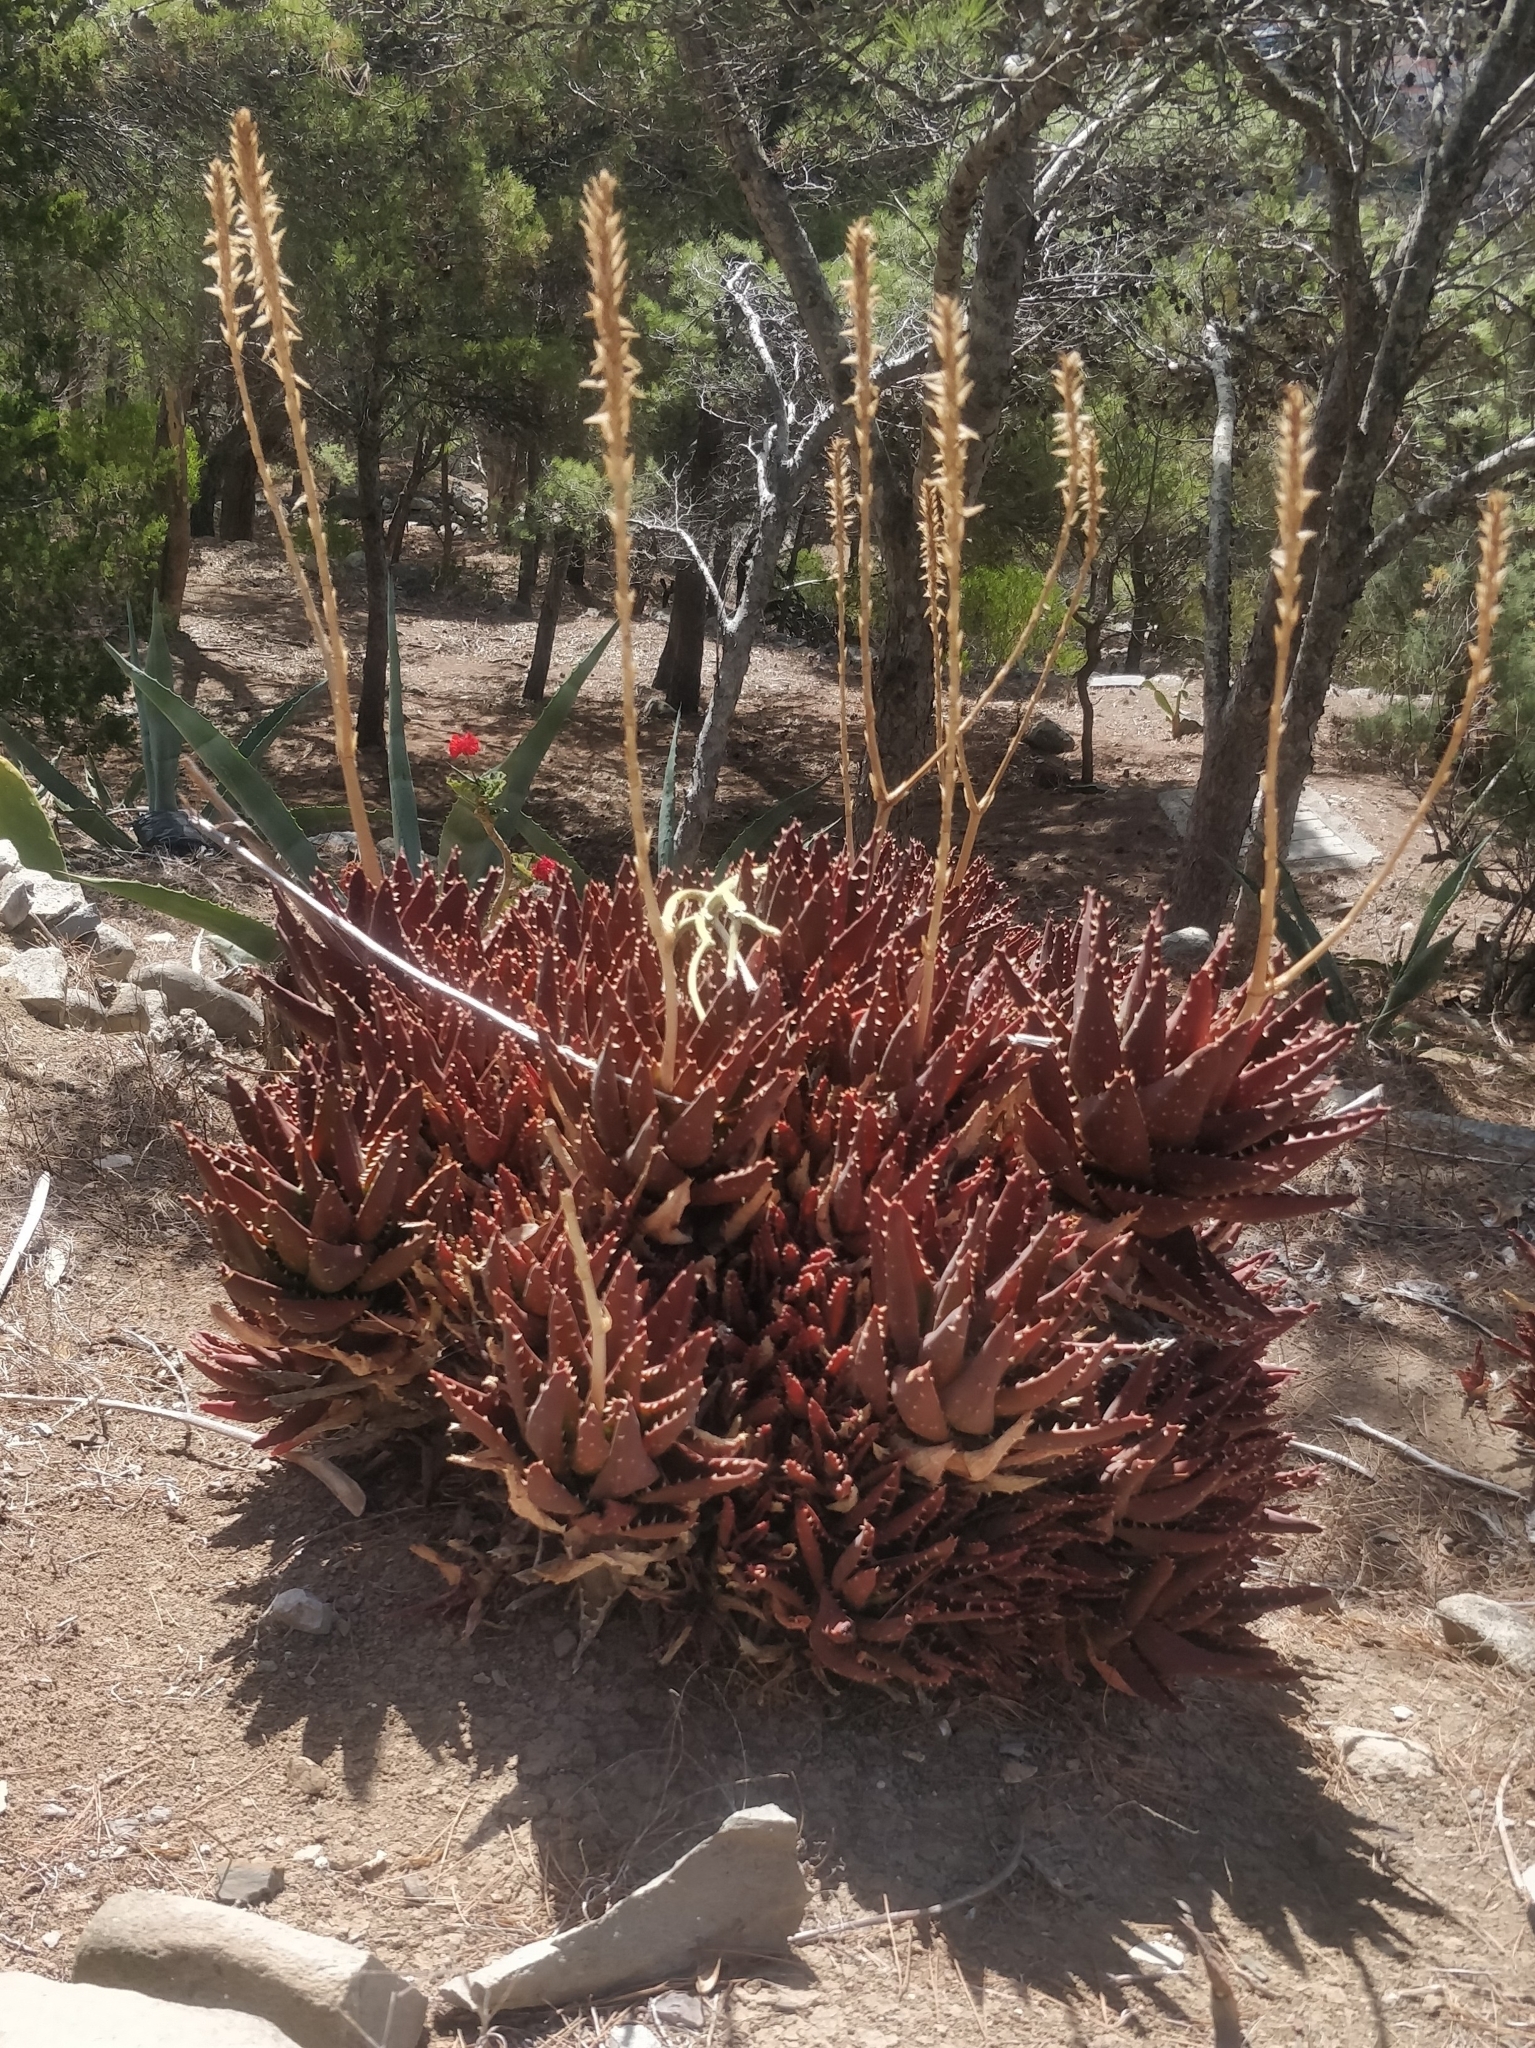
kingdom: Plantae
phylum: Tracheophyta
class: Liliopsida
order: Asparagales
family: Asphodelaceae
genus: Aloe
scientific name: Aloe nobilis
